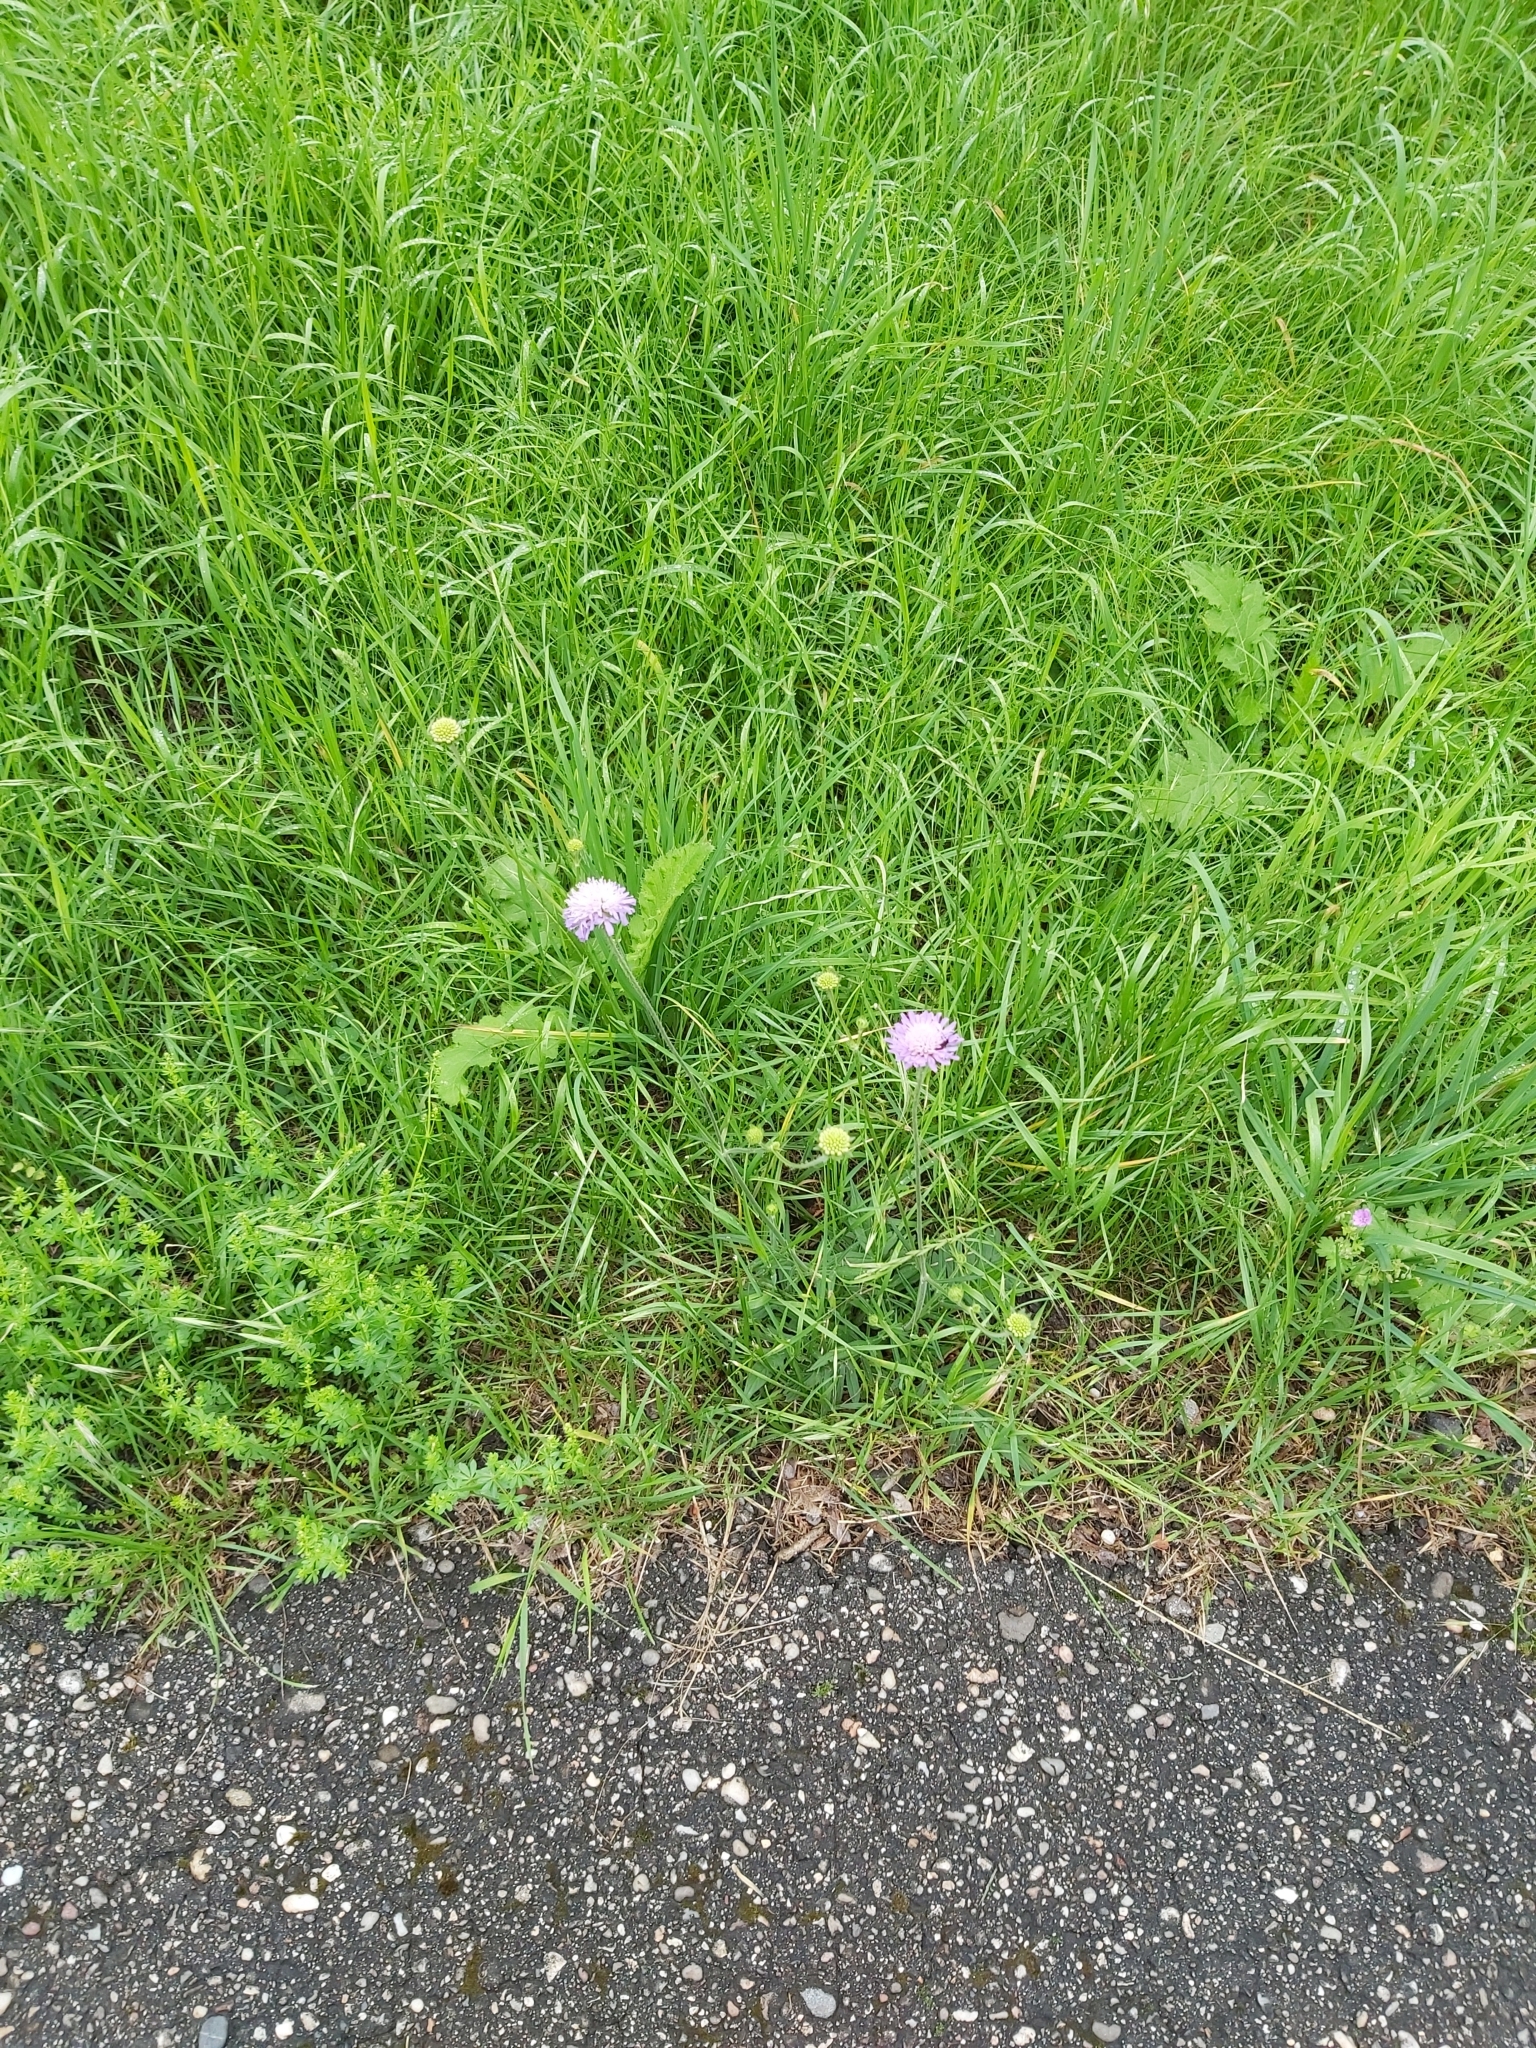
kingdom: Plantae
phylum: Tracheophyta
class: Magnoliopsida
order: Dipsacales
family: Caprifoliaceae
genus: Knautia
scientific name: Knautia arvensis
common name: Field scabiosa
